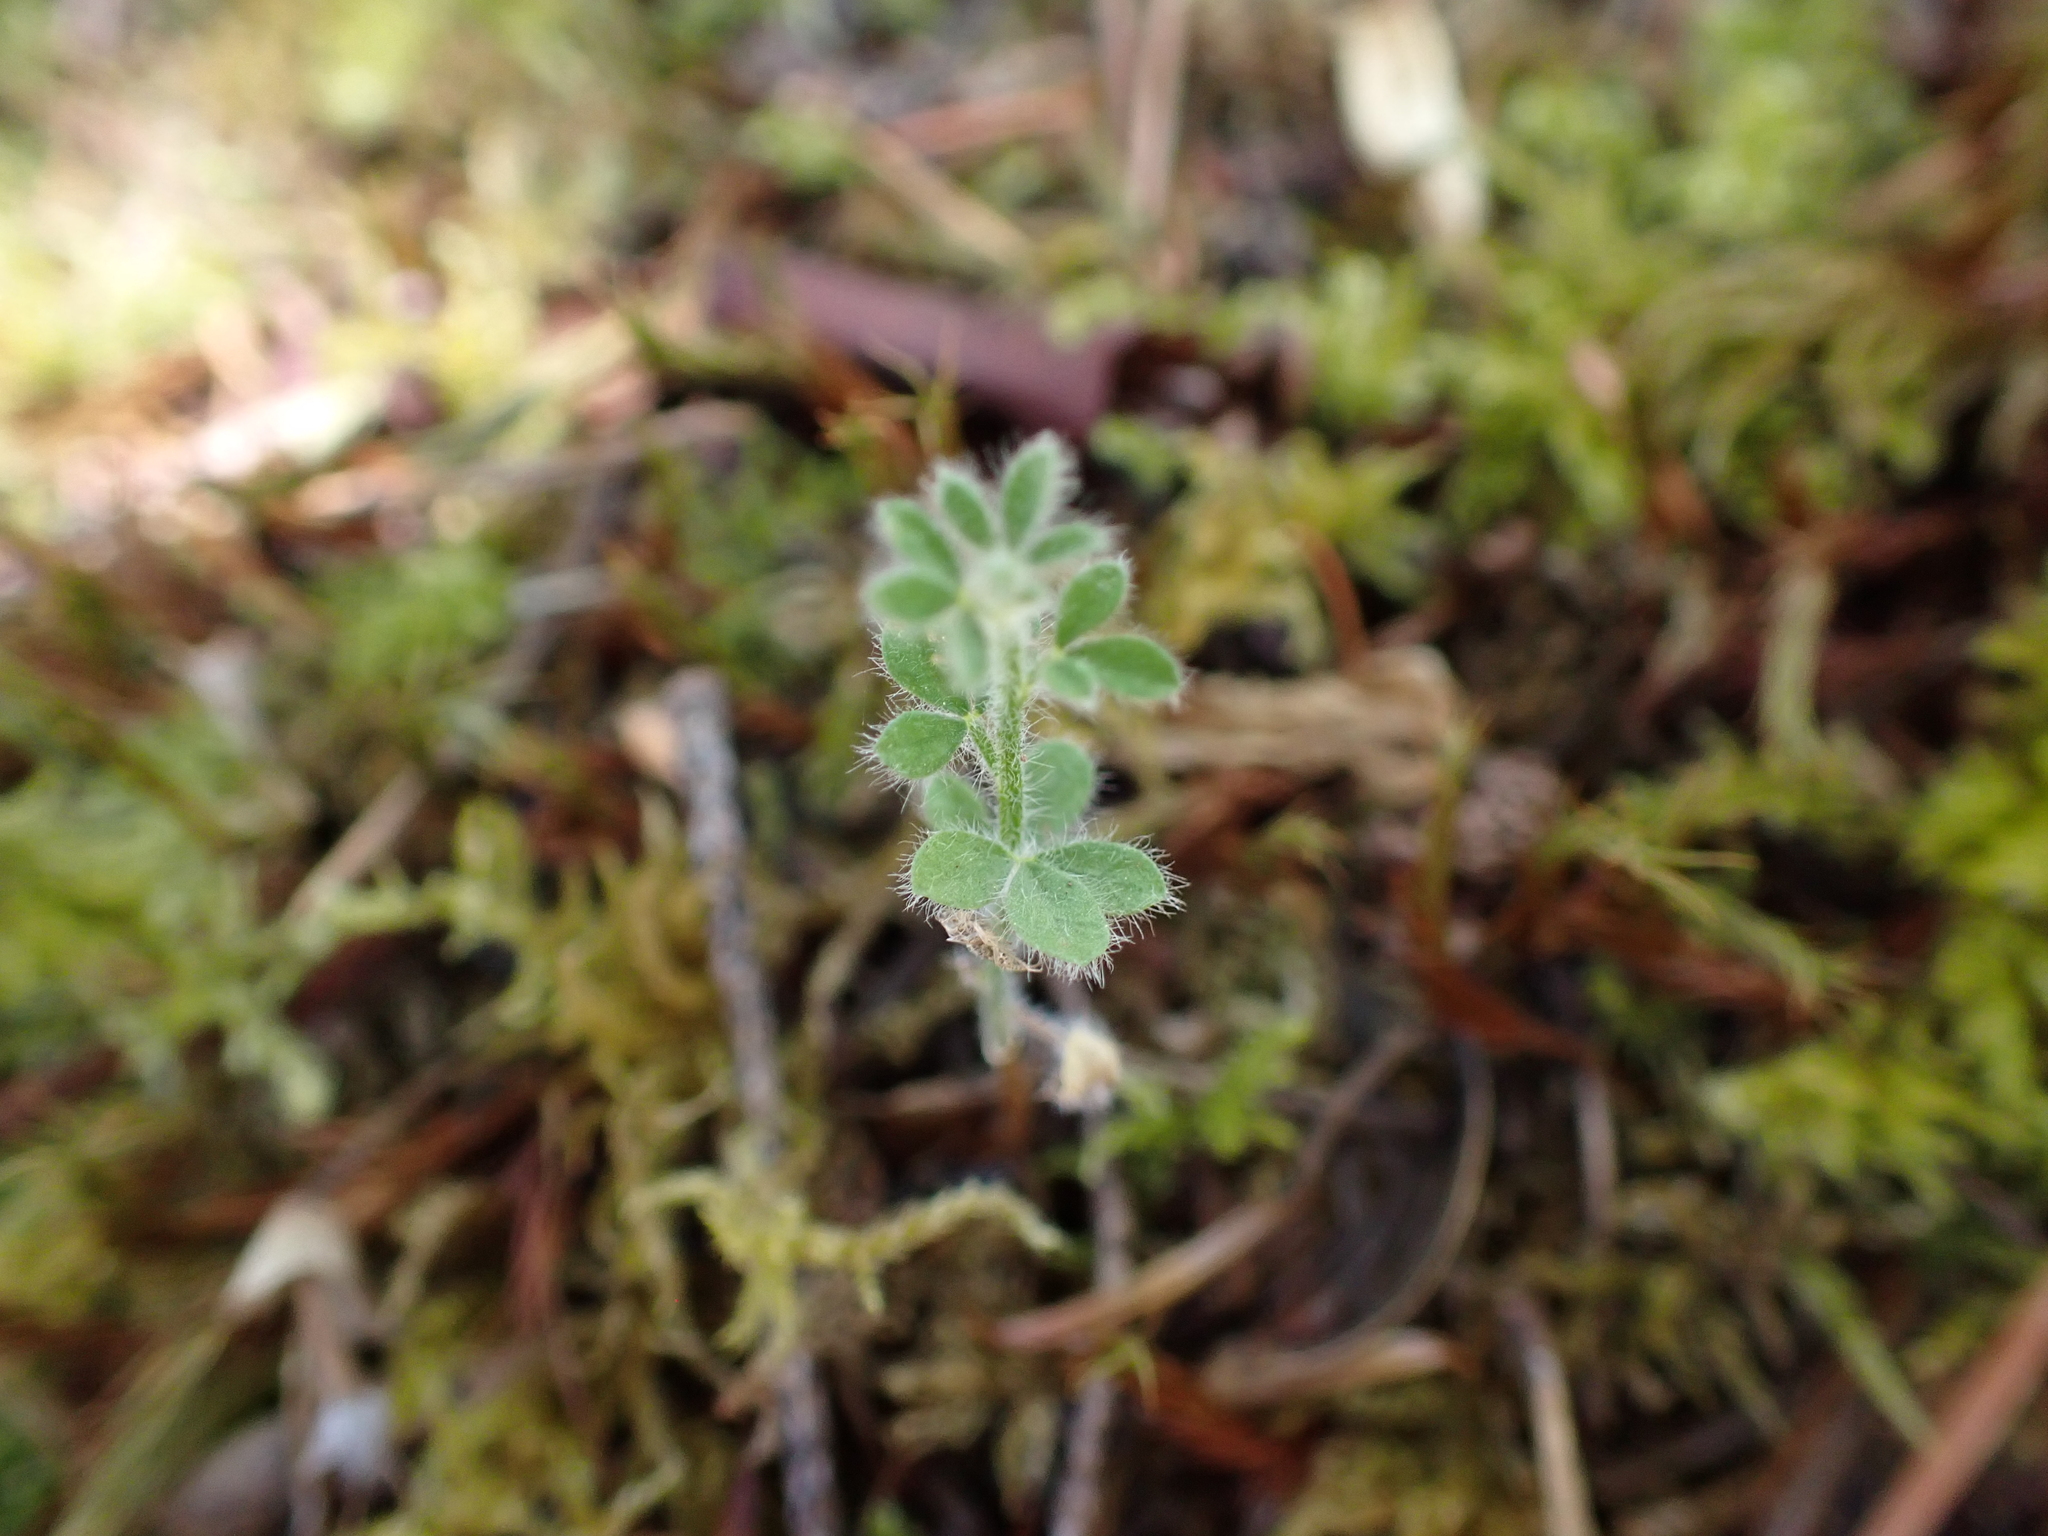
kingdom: Plantae
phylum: Tracheophyta
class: Magnoliopsida
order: Fabales
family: Fabaceae
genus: Cytisus
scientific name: Cytisus scoparius
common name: Scotch broom
